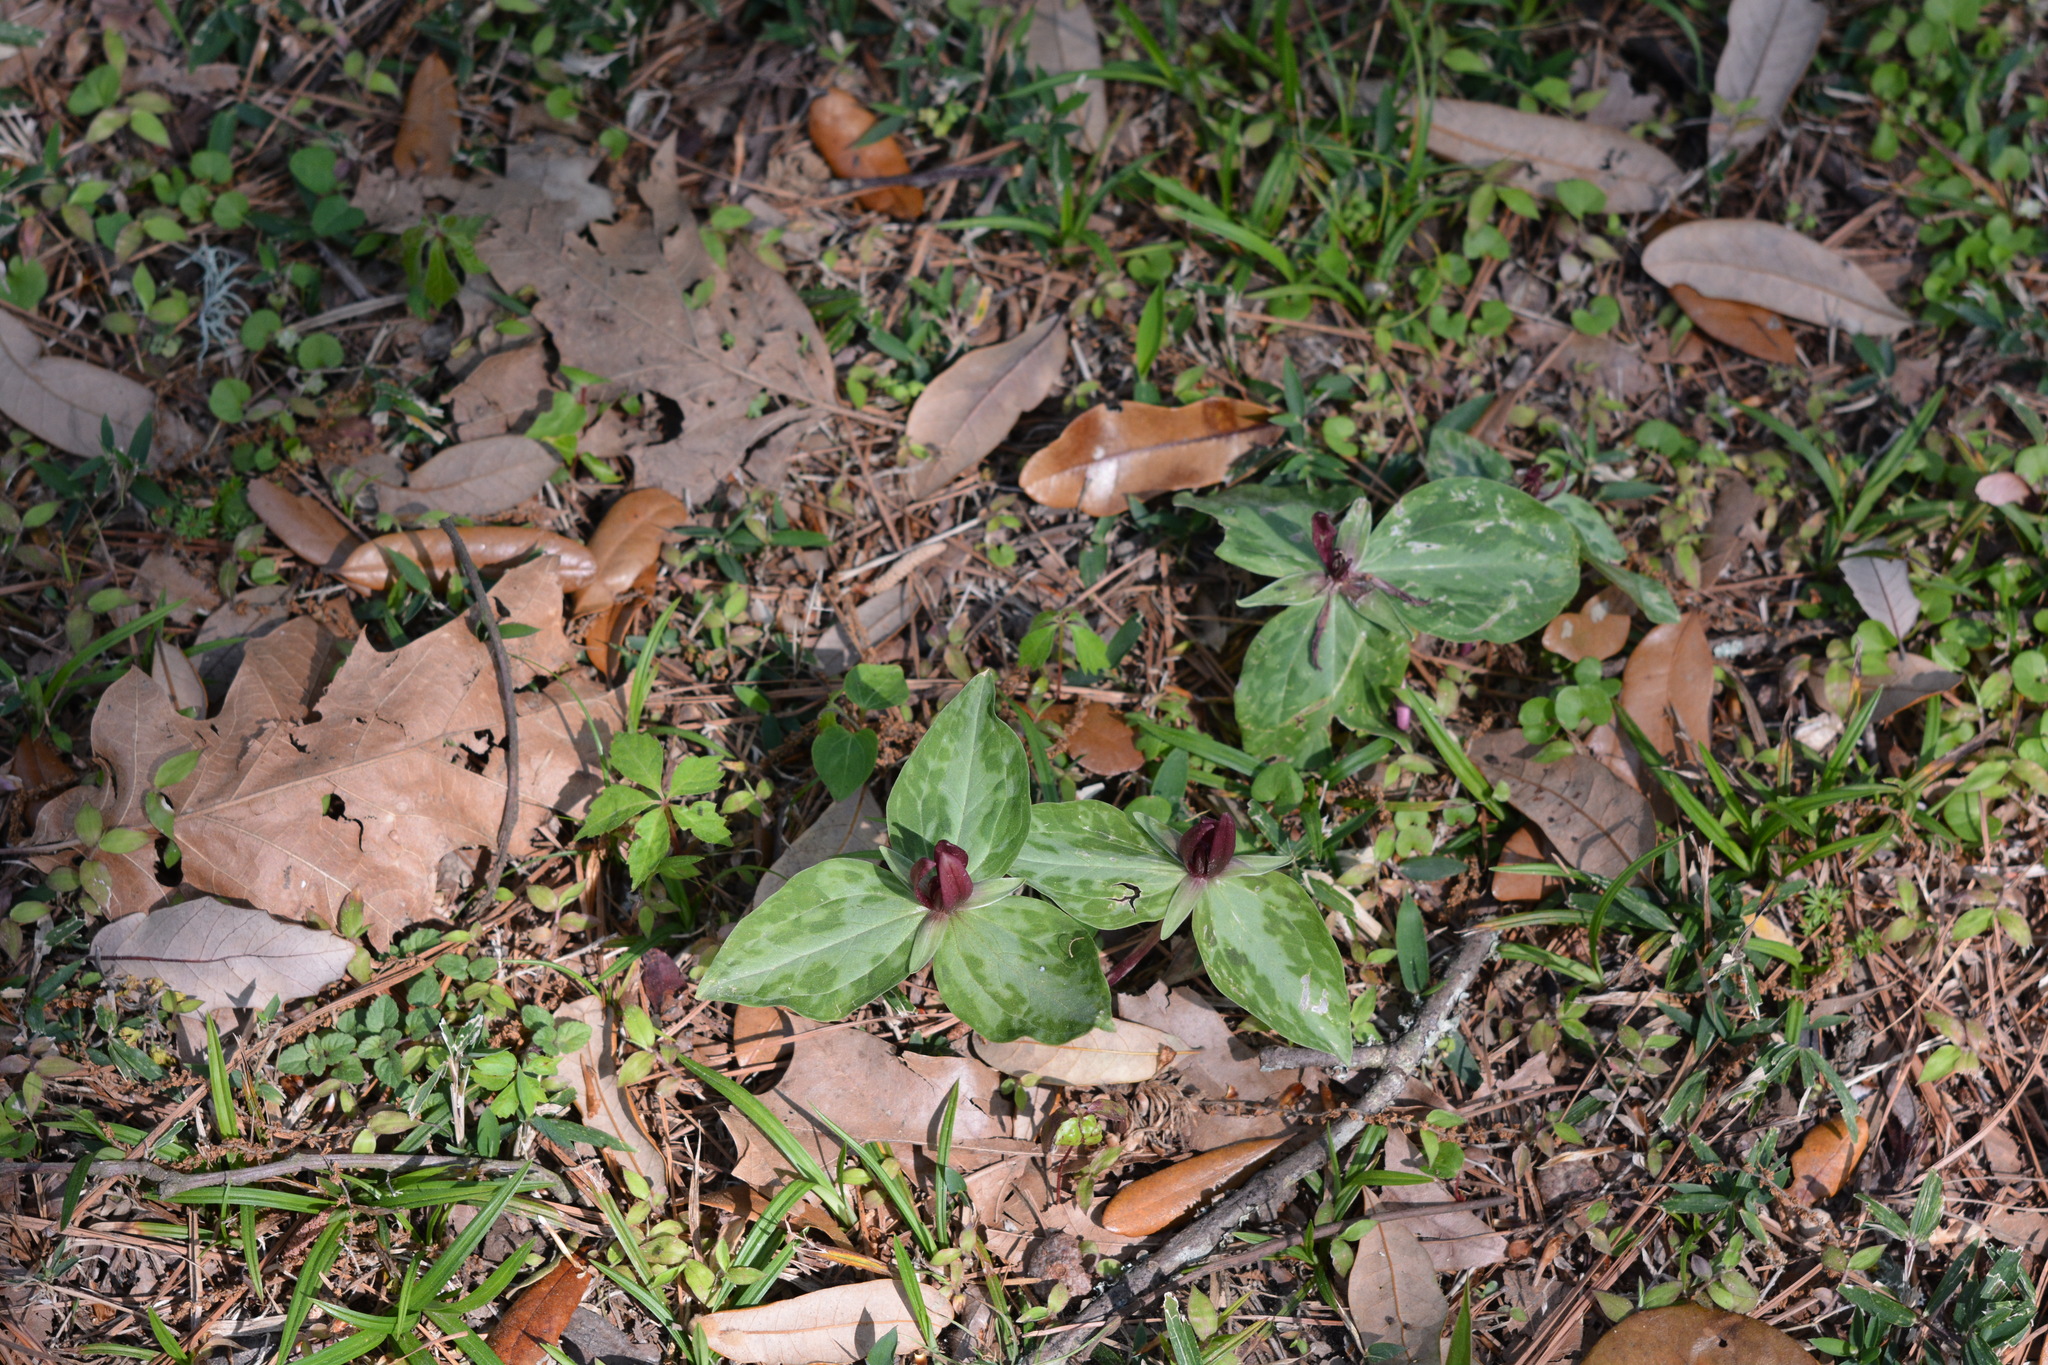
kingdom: Plantae
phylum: Tracheophyta
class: Liliopsida
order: Liliales
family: Melanthiaceae
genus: Trillium
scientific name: Trillium foetidissimum
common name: Mississippi river trillium
